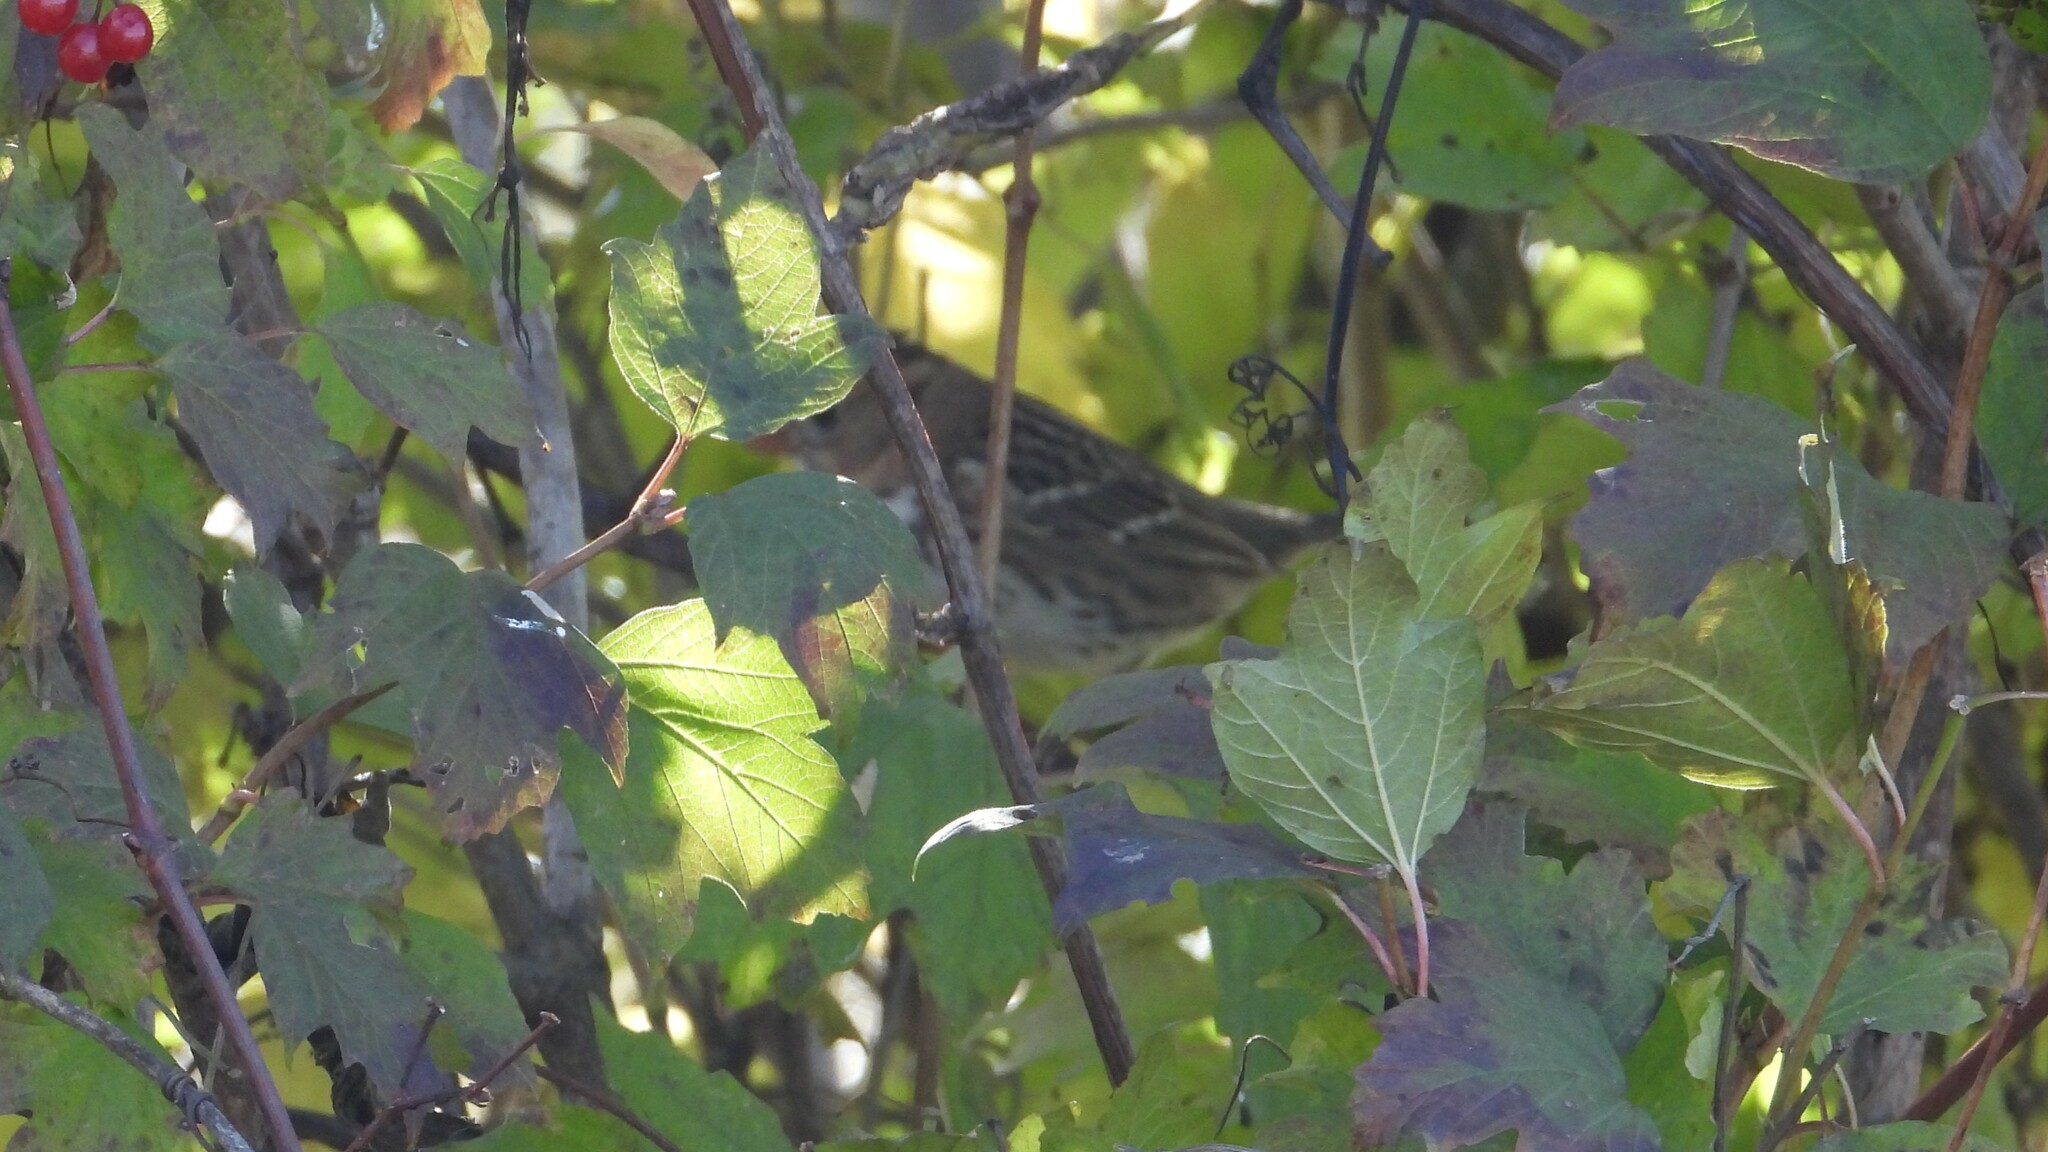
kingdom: Animalia
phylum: Chordata
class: Aves
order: Passeriformes
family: Passerellidae
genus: Zonotrichia
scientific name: Zonotrichia querula
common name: Harris's sparrow
